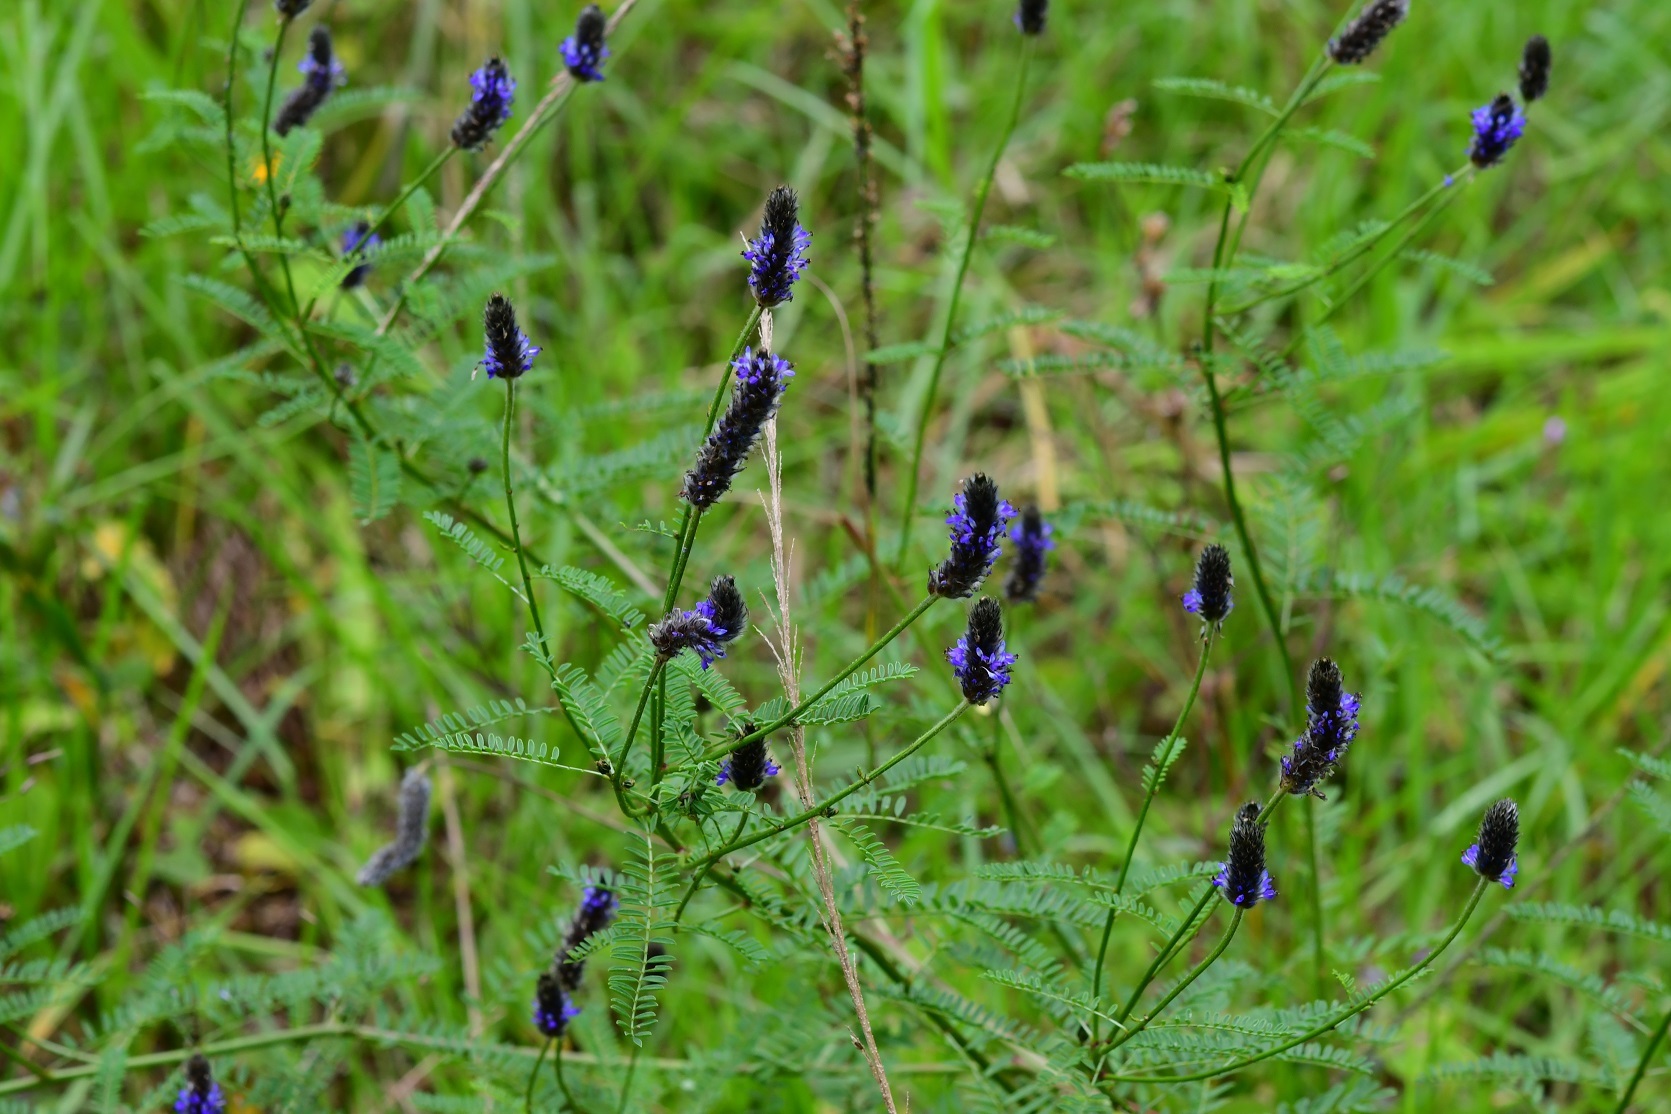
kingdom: Plantae
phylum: Tracheophyta
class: Magnoliopsida
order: Fabales
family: Fabaceae
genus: Dalea
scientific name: Dalea leporina
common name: Foxtail dalea
